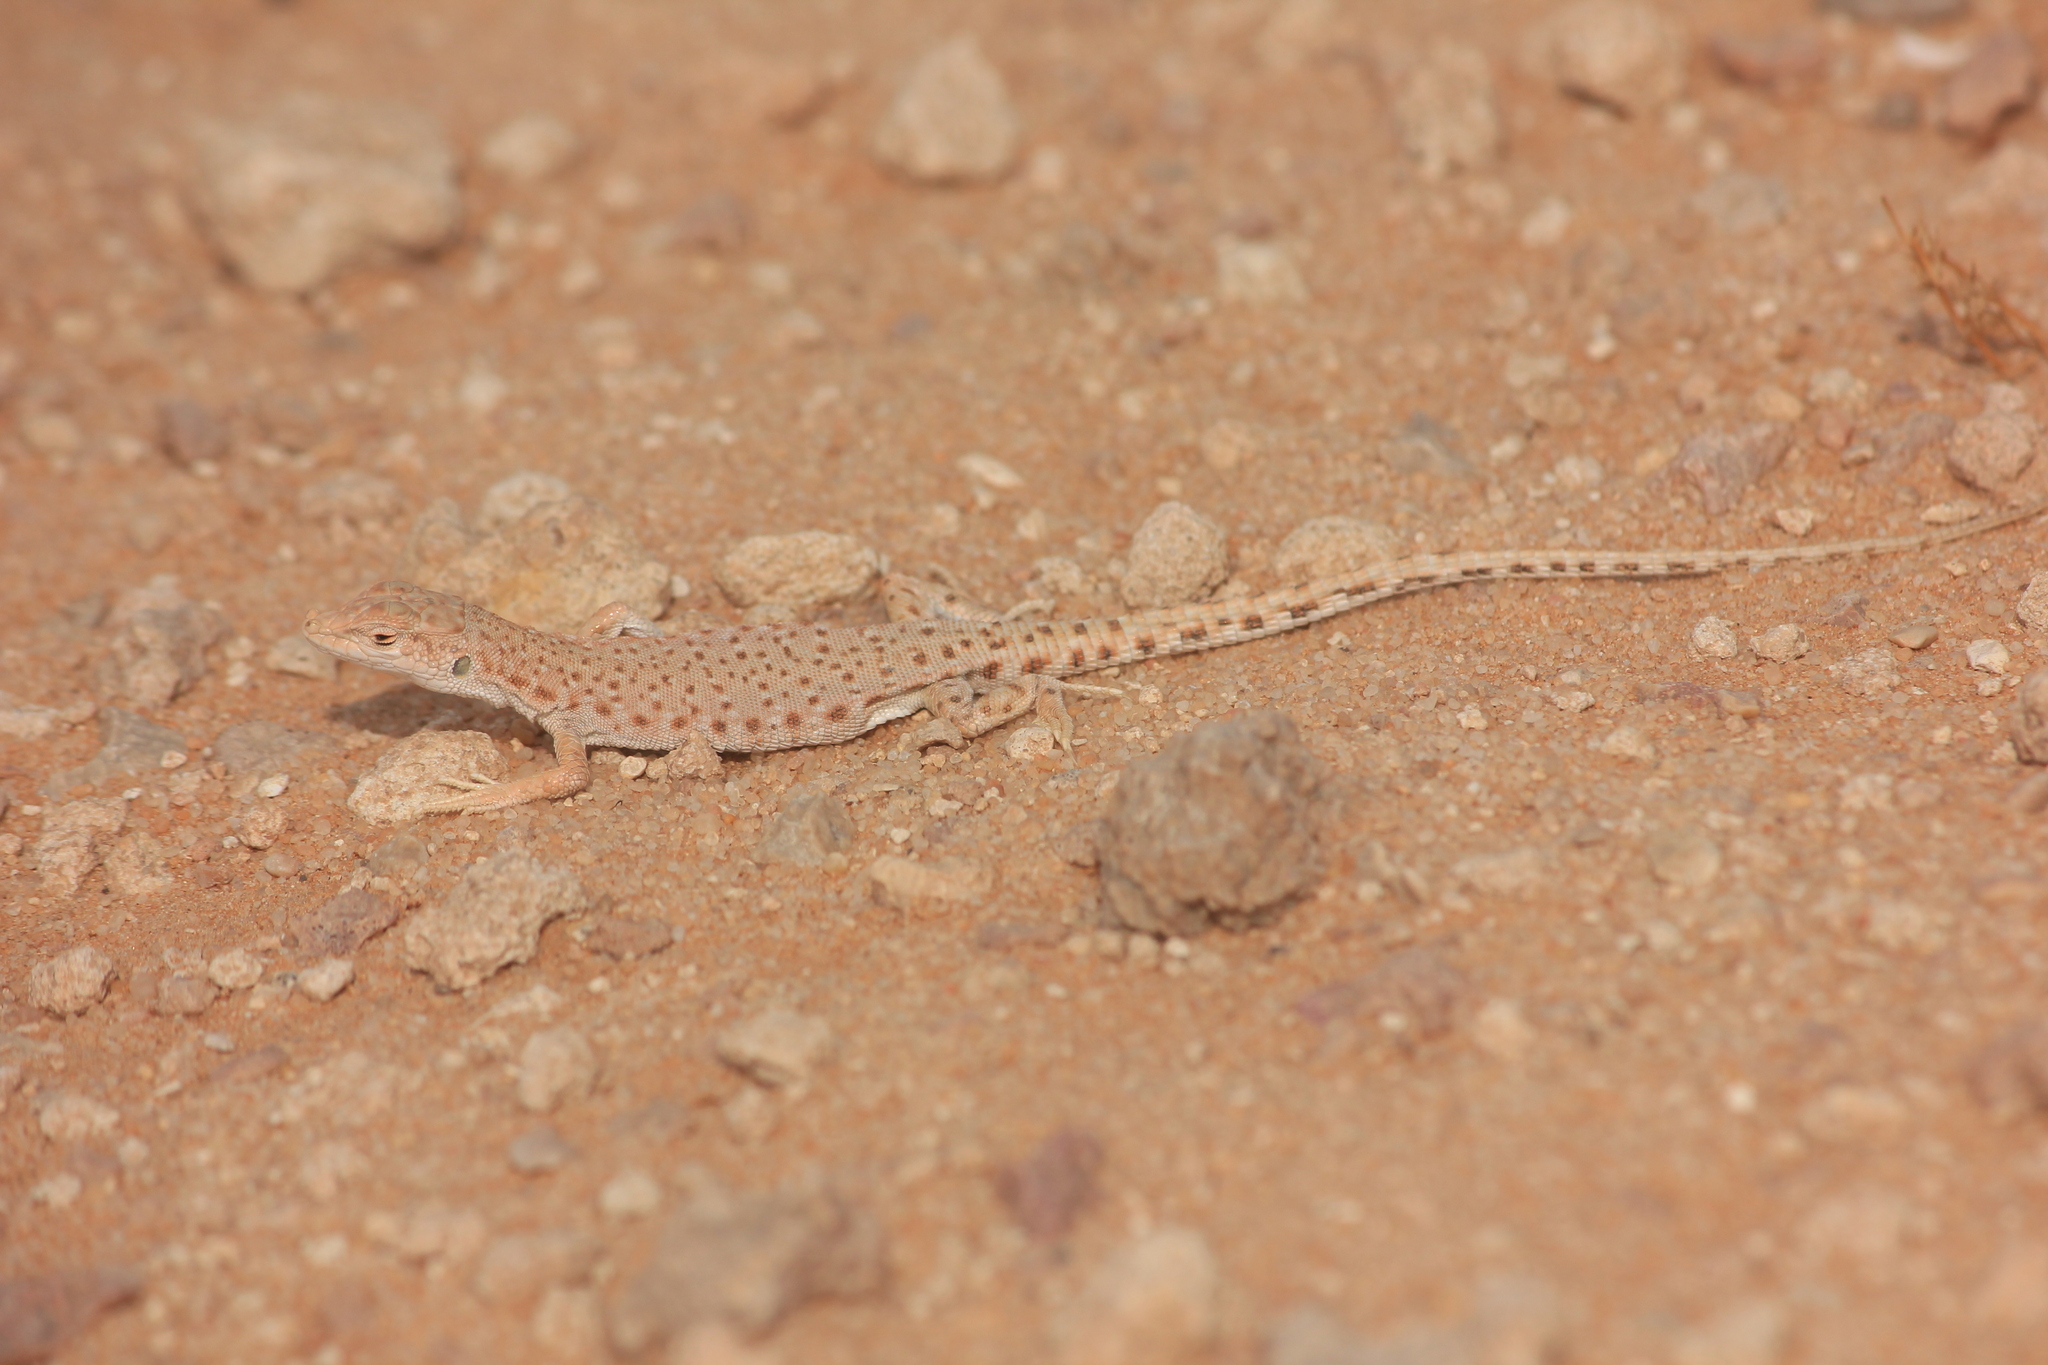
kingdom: Animalia
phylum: Chordata
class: Squamata
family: Lacertidae
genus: Mesalina
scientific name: Mesalina brevirostris
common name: Blanford's short-nosed desert lizard
